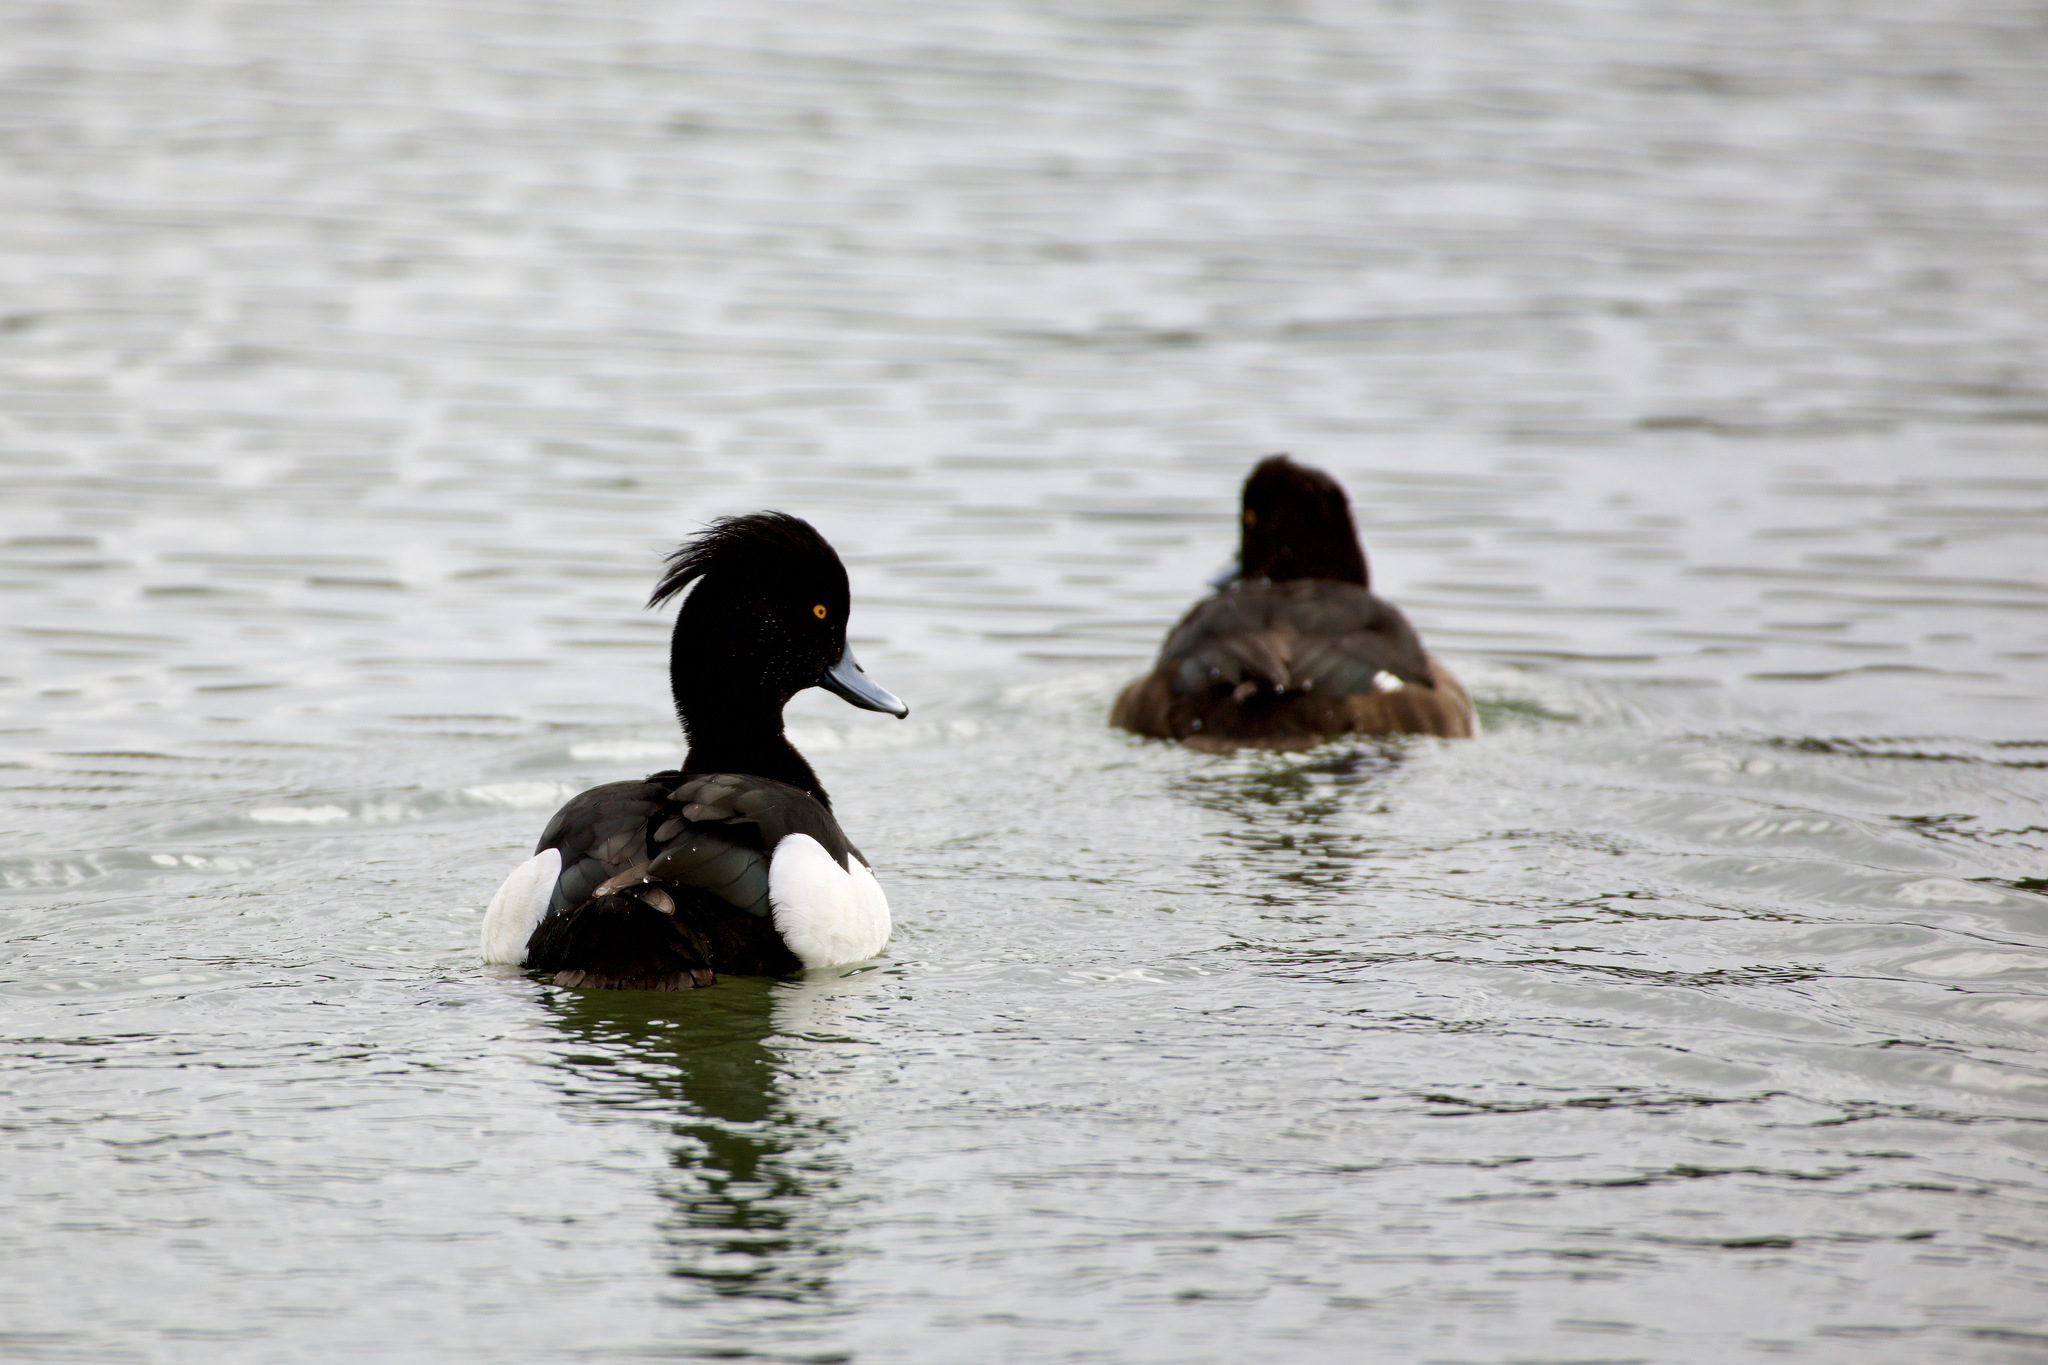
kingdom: Animalia
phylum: Chordata
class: Aves
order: Anseriformes
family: Anatidae
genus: Aythya
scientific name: Aythya fuligula
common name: Tufted duck
